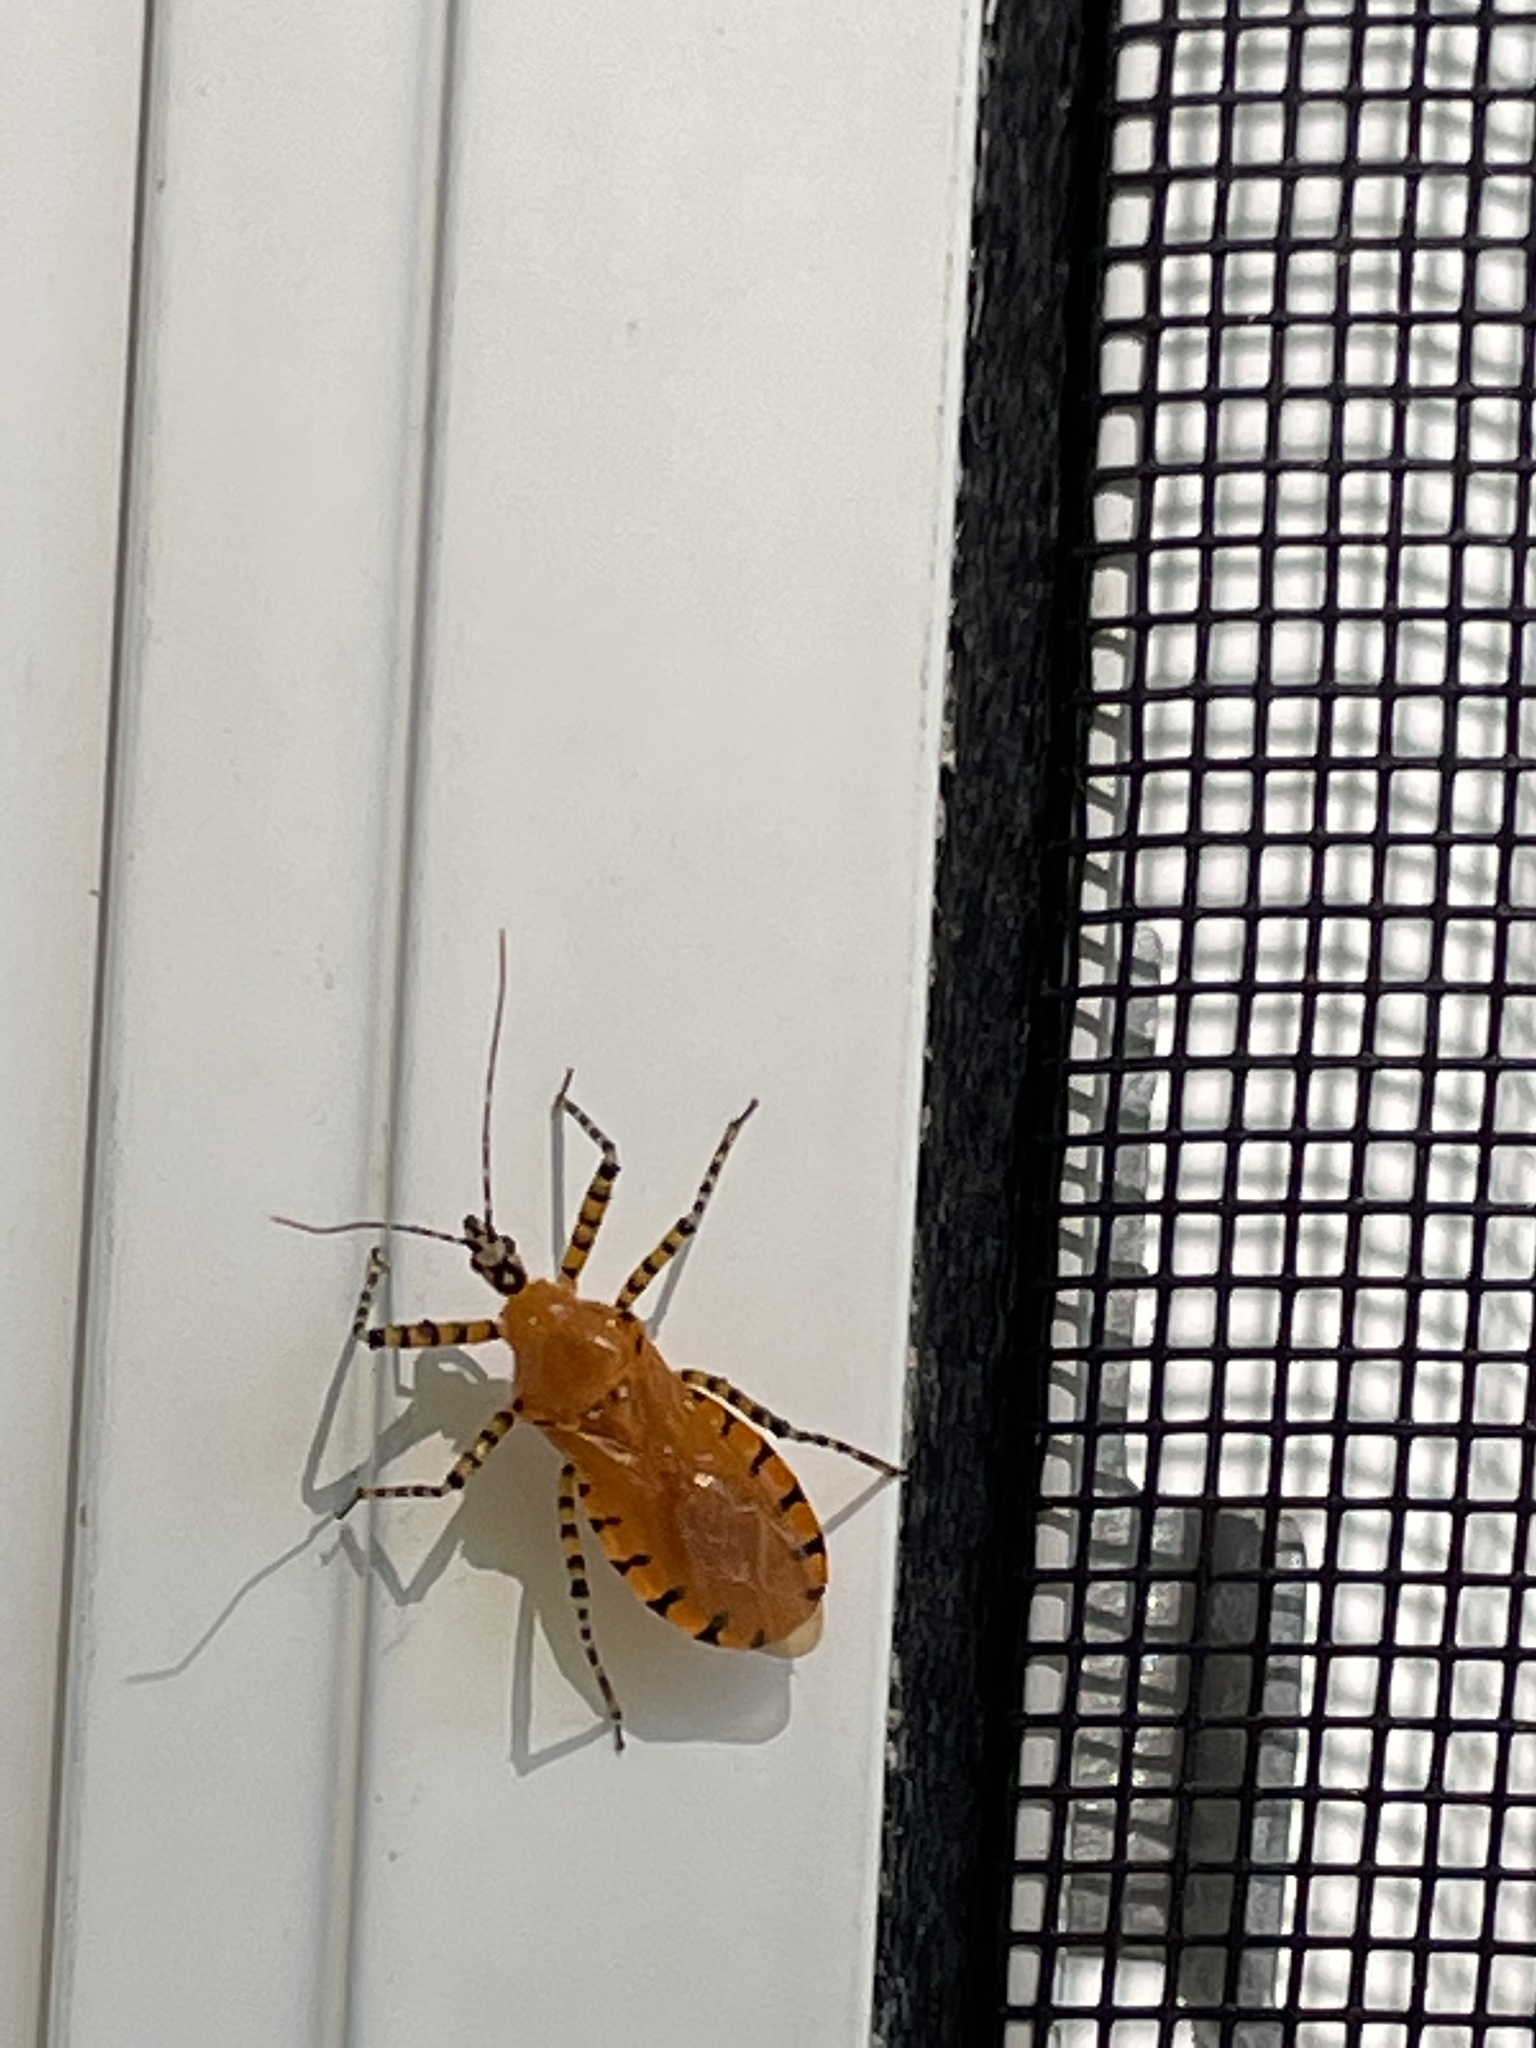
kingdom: Animalia
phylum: Arthropoda
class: Insecta
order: Hemiptera
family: Reduviidae
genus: Pselliopus
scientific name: Pselliopus barberi
